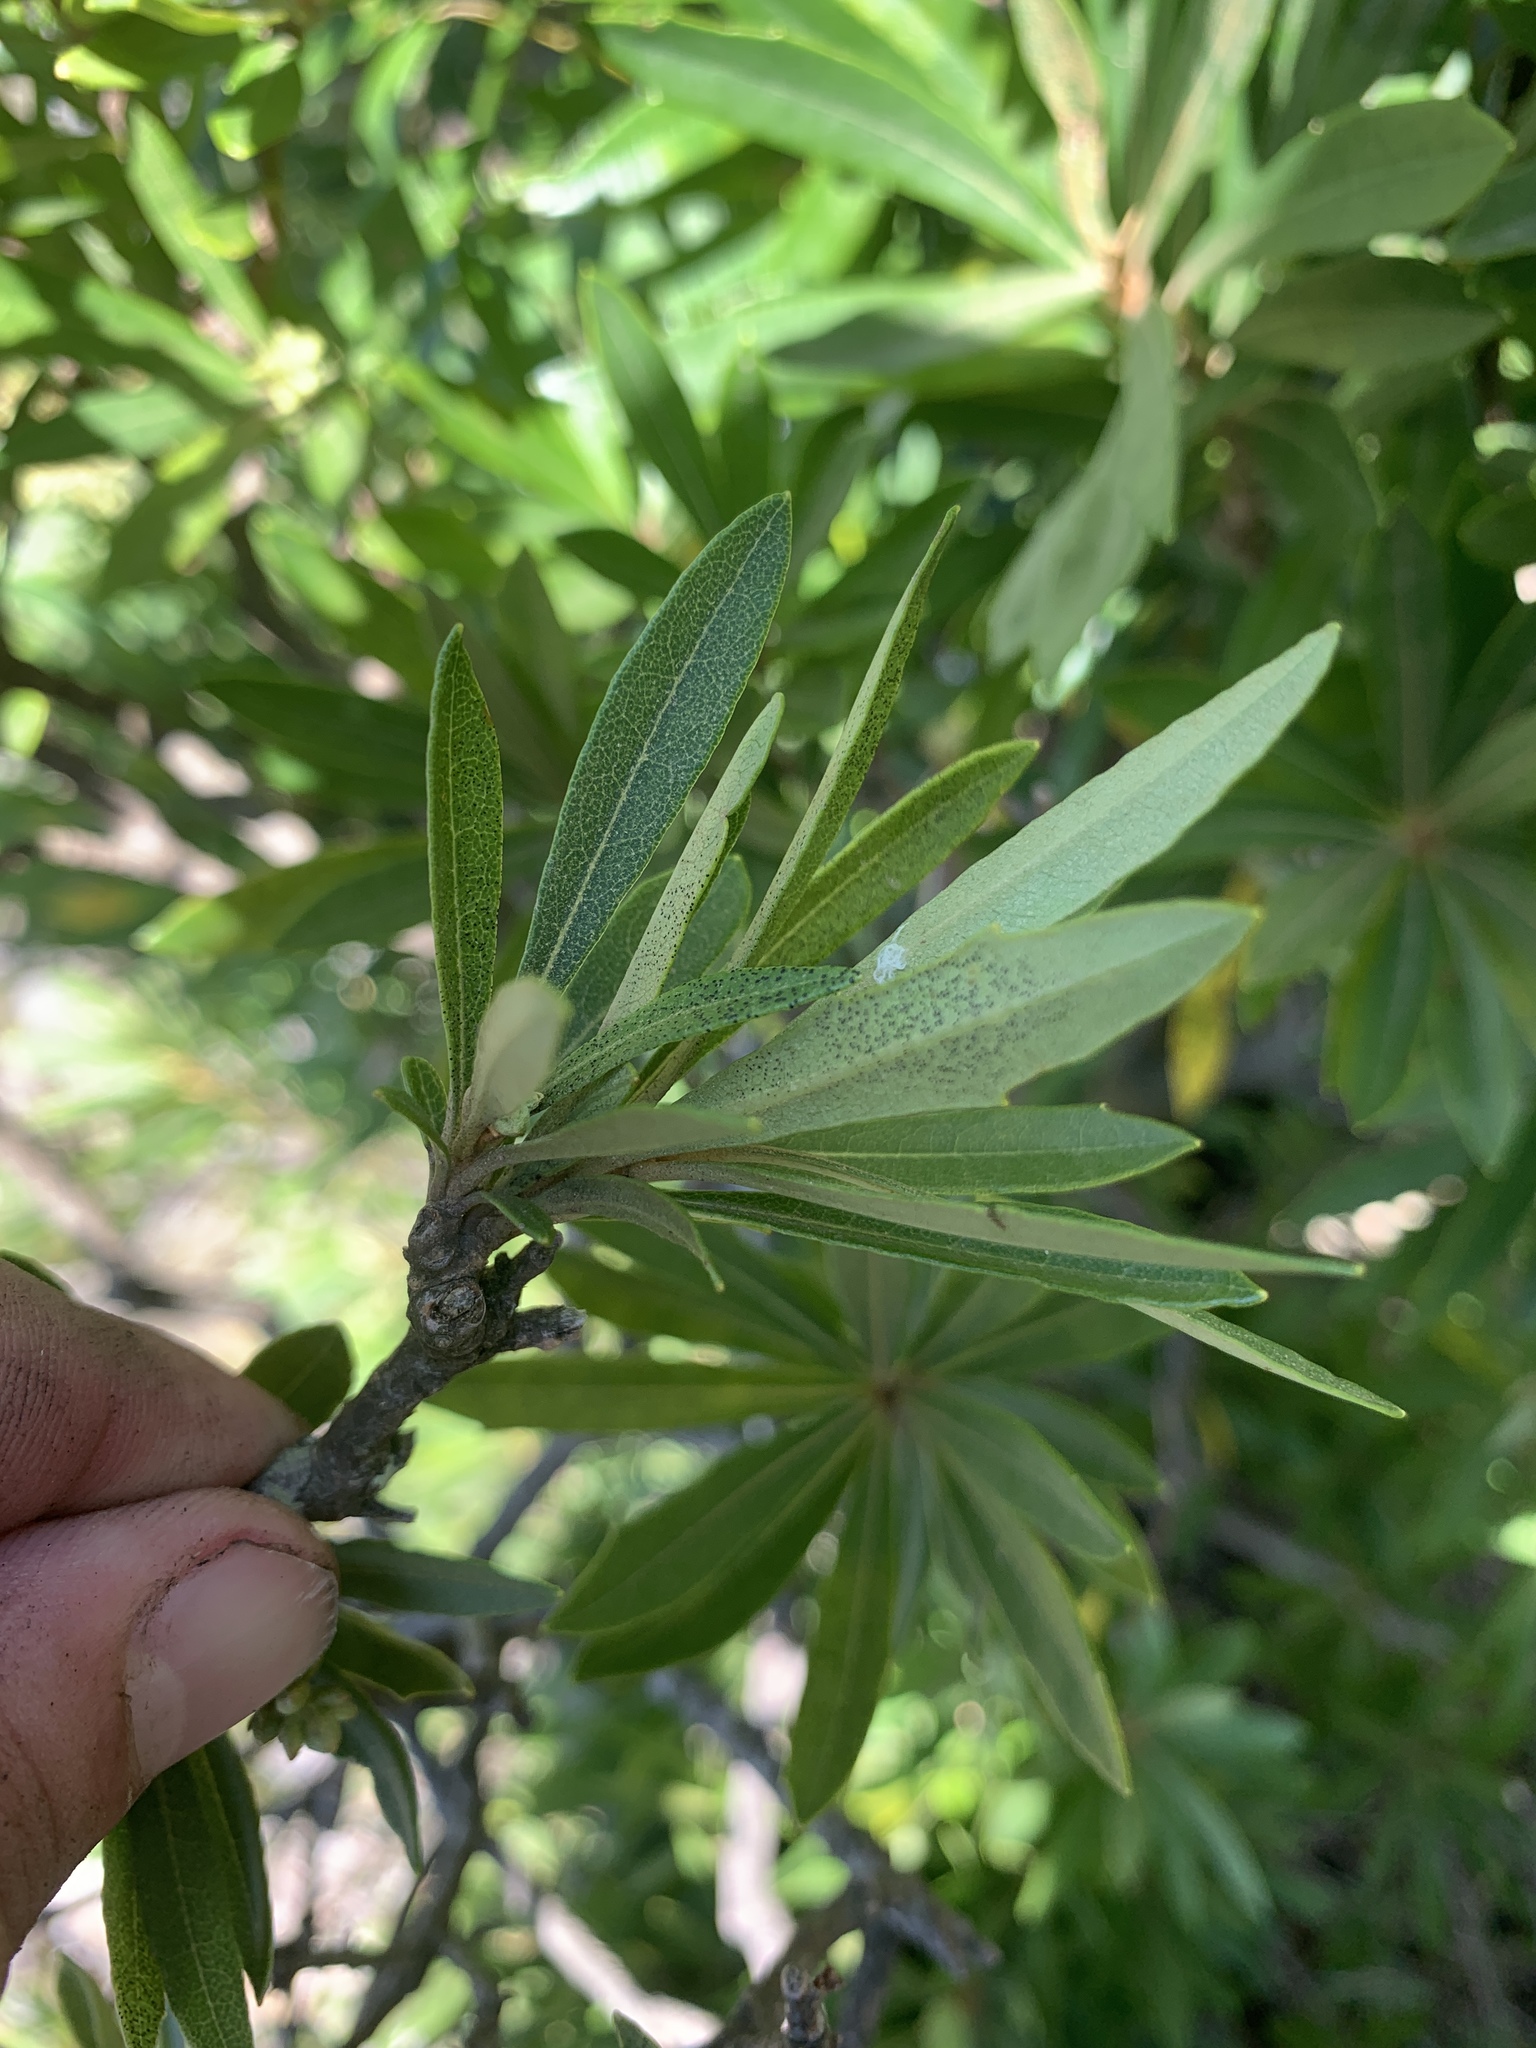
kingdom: Plantae
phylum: Tracheophyta
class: Magnoliopsida
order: Asterales
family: Asteraceae
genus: Brachylaena
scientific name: Brachylaena neriifolia
